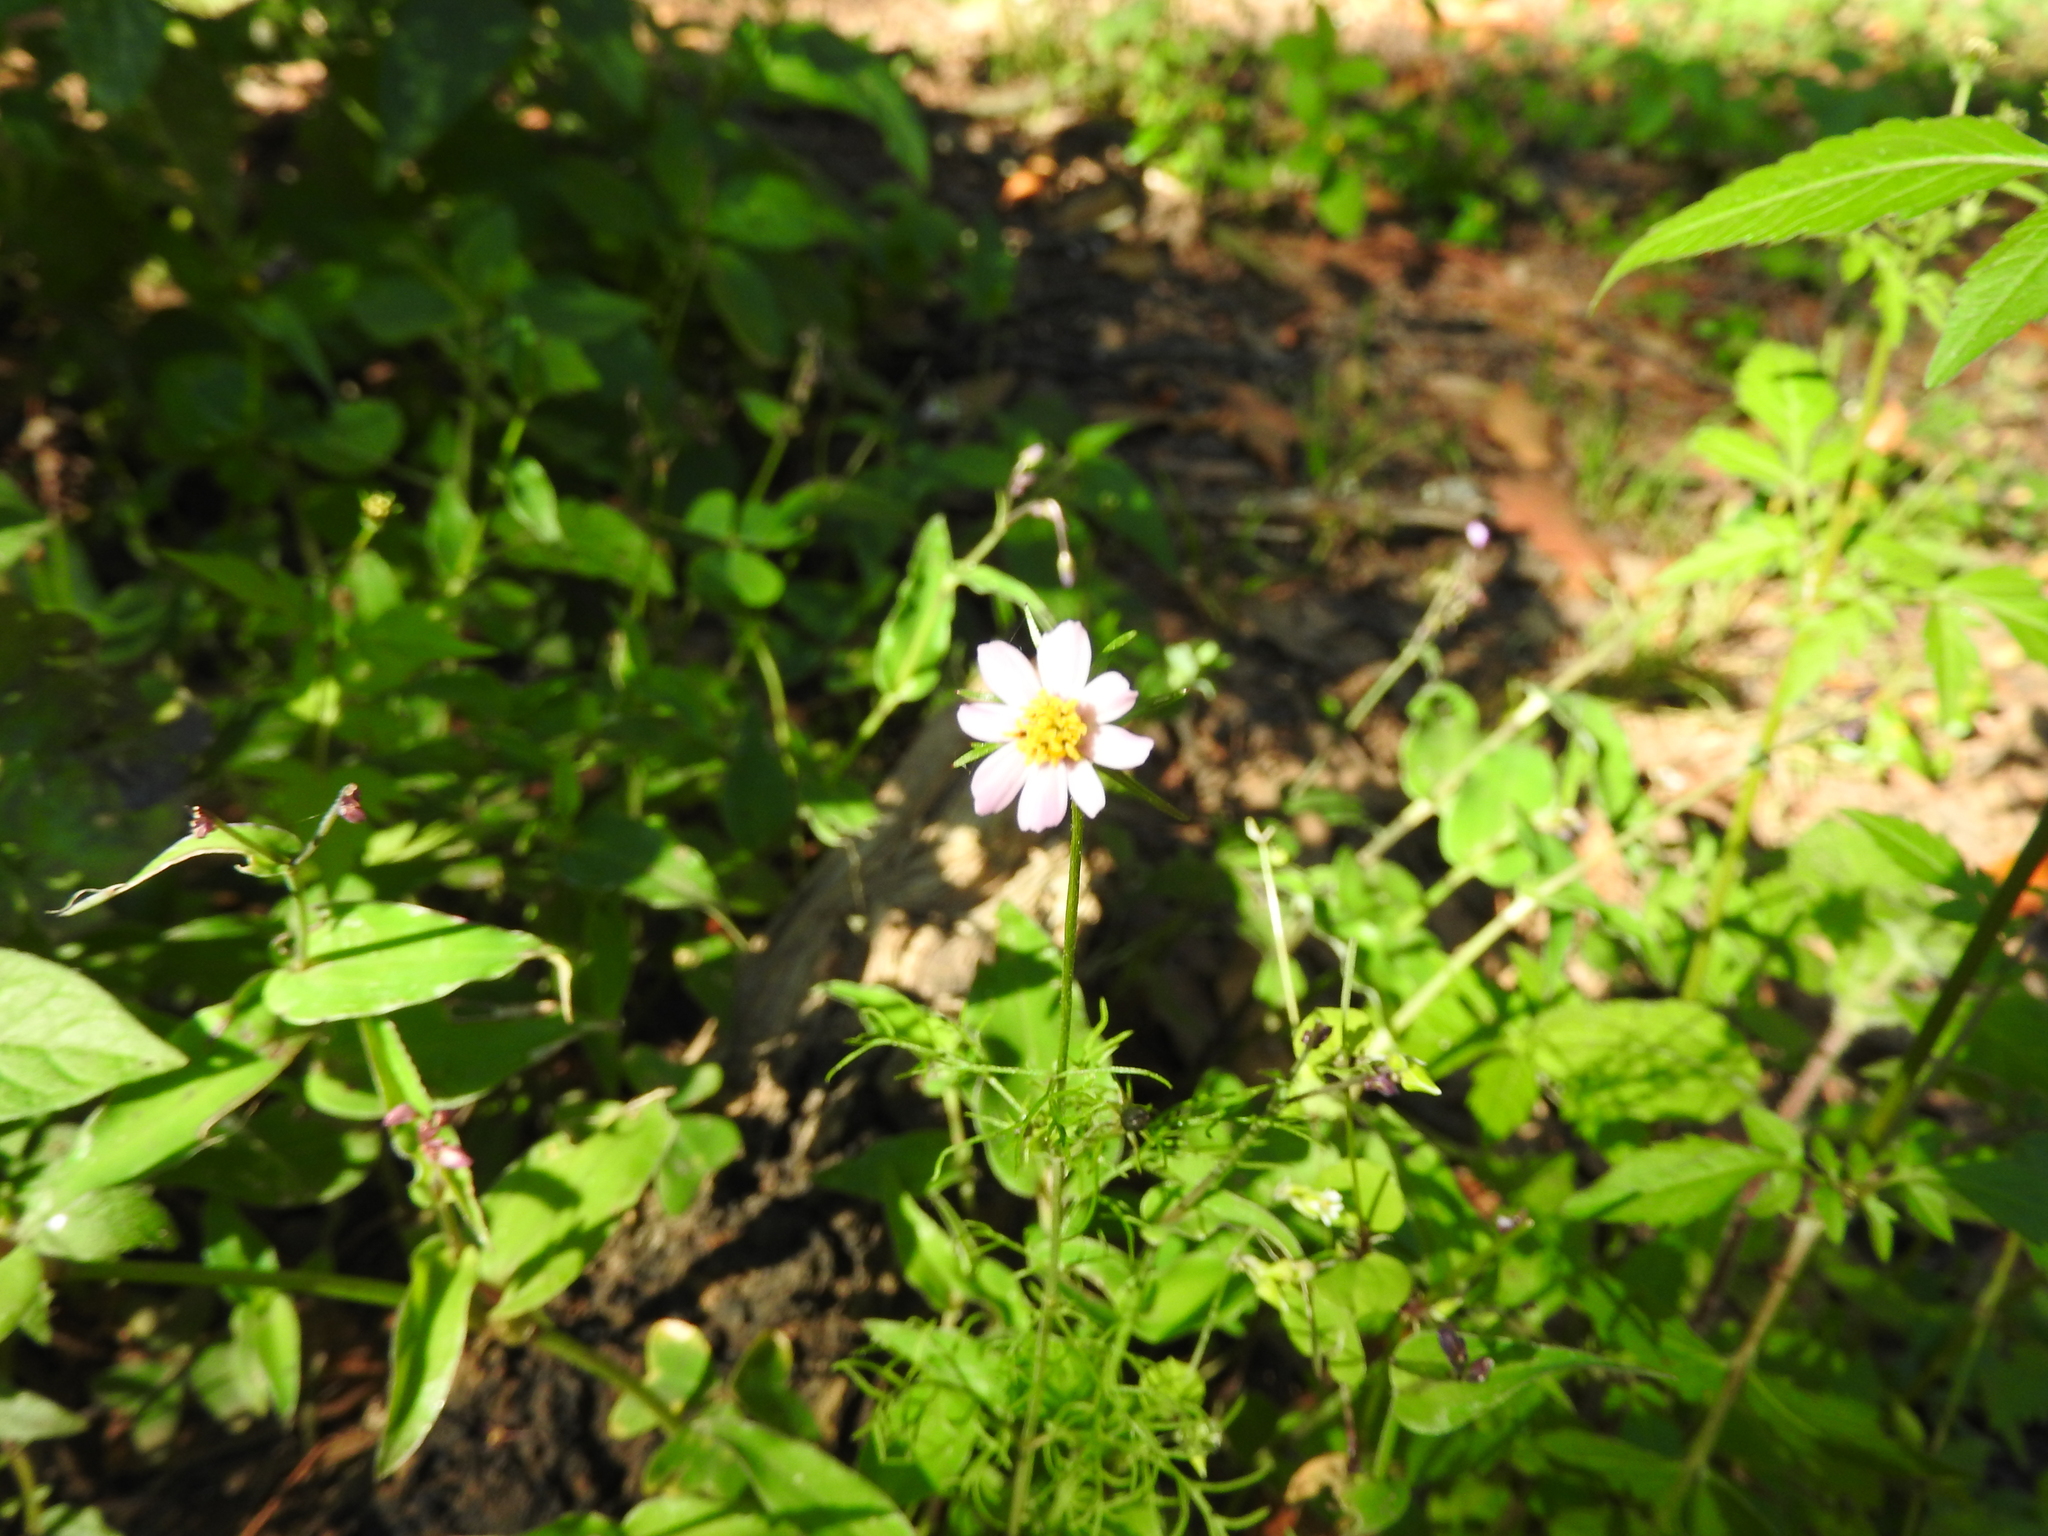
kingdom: Plantae
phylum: Tracheophyta
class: Magnoliopsida
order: Asterales
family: Asteraceae
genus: Cosmos
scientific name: Cosmos parviflorus
